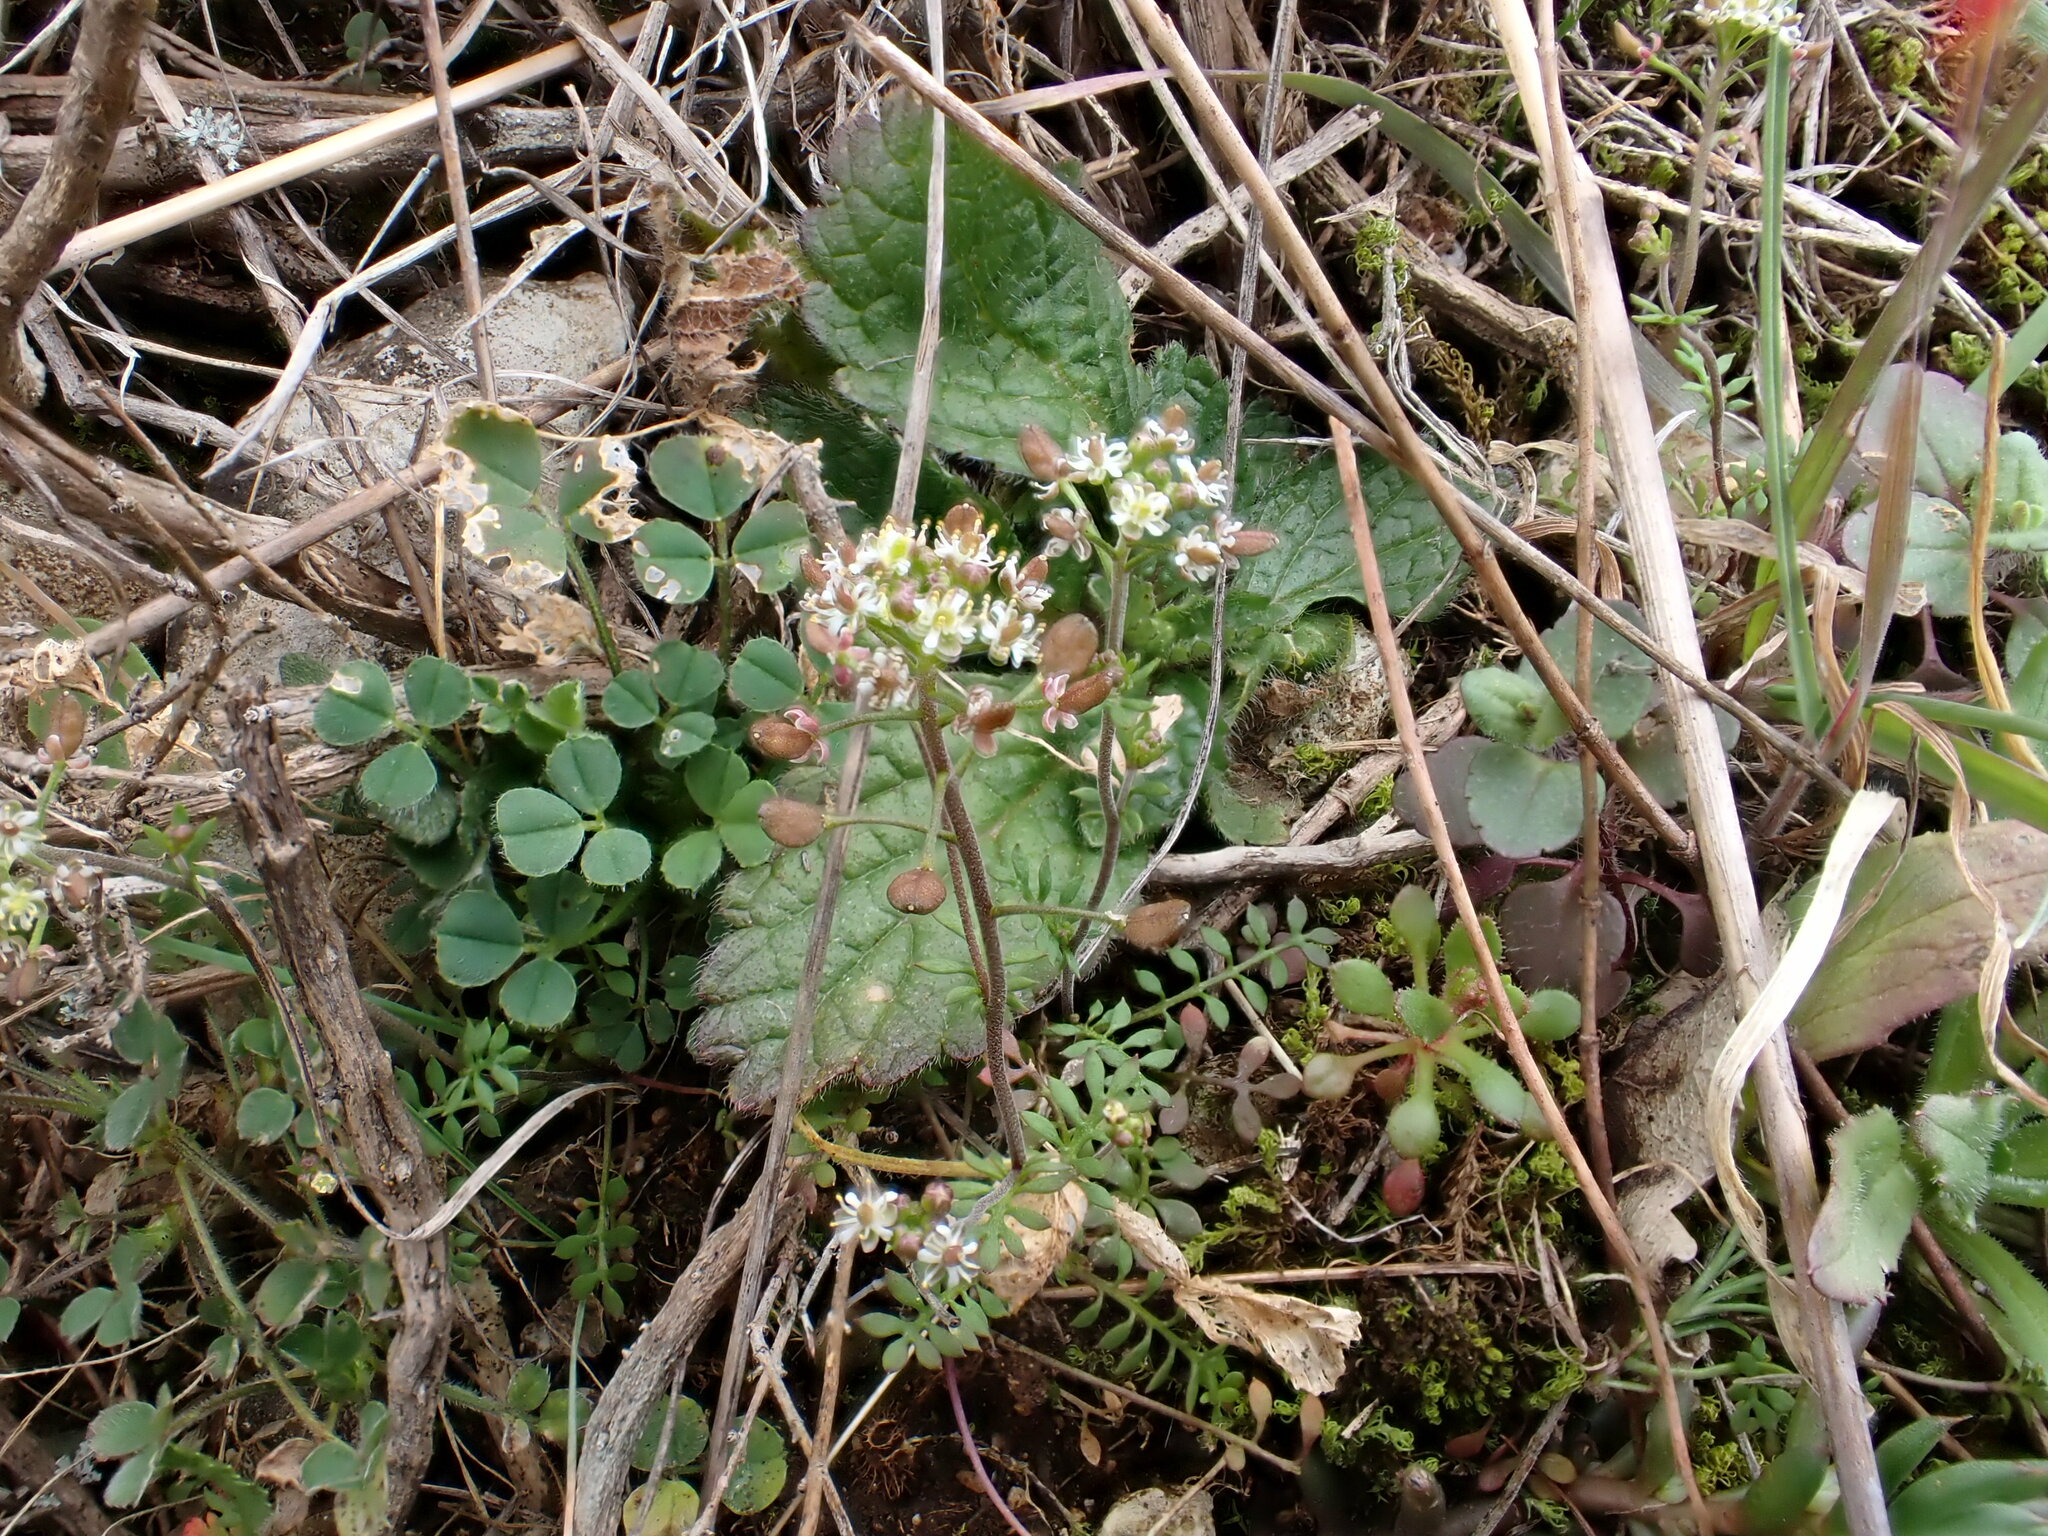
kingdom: Plantae
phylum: Tracheophyta
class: Magnoliopsida
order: Brassicales
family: Brassicaceae
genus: Hornungia
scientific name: Hornungia petraea
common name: Hutchinsia
